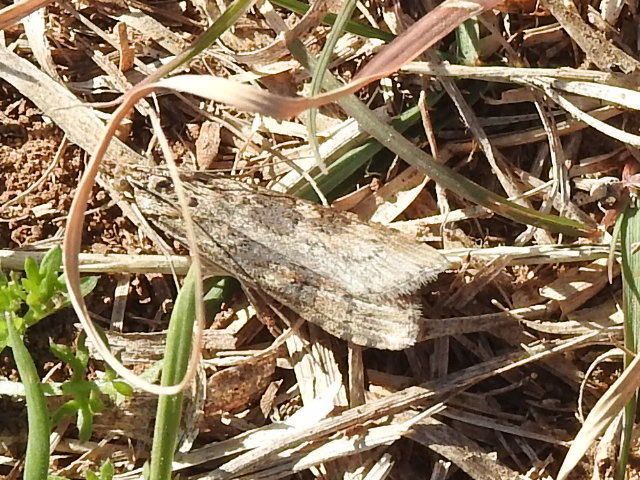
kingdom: Animalia
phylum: Arthropoda
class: Insecta
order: Lepidoptera
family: Crambidae
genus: Nomophila
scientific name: Nomophila nearctica
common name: American rush veneer
